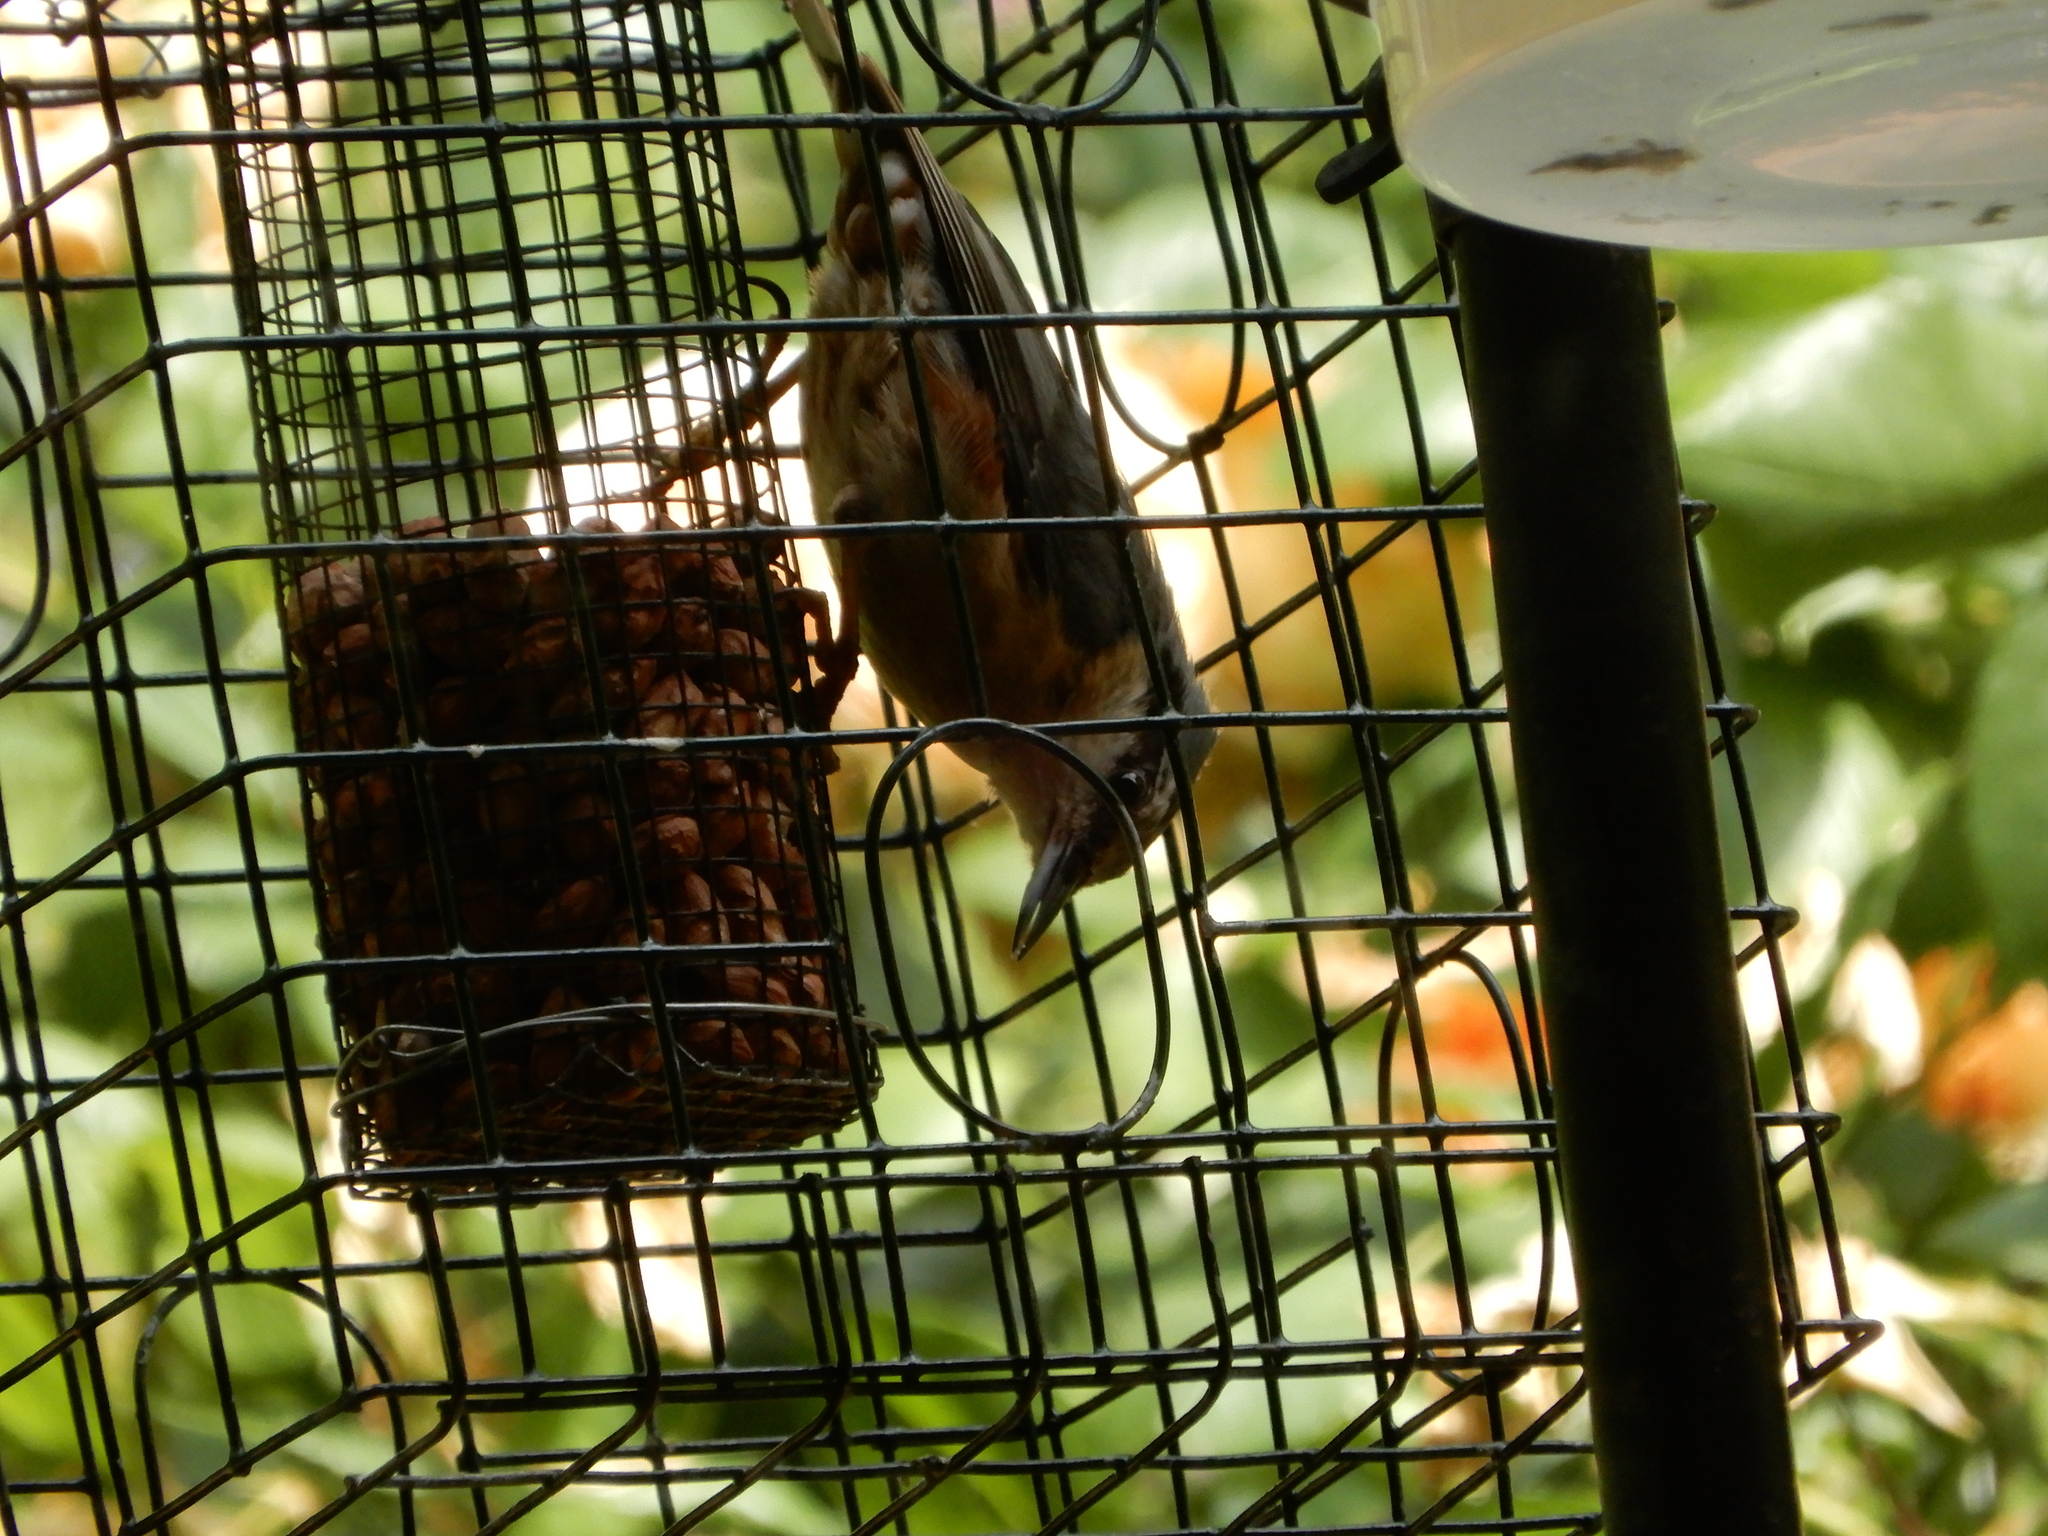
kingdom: Animalia
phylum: Chordata
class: Aves
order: Passeriformes
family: Sittidae
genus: Sitta
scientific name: Sitta europaea
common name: Eurasian nuthatch
